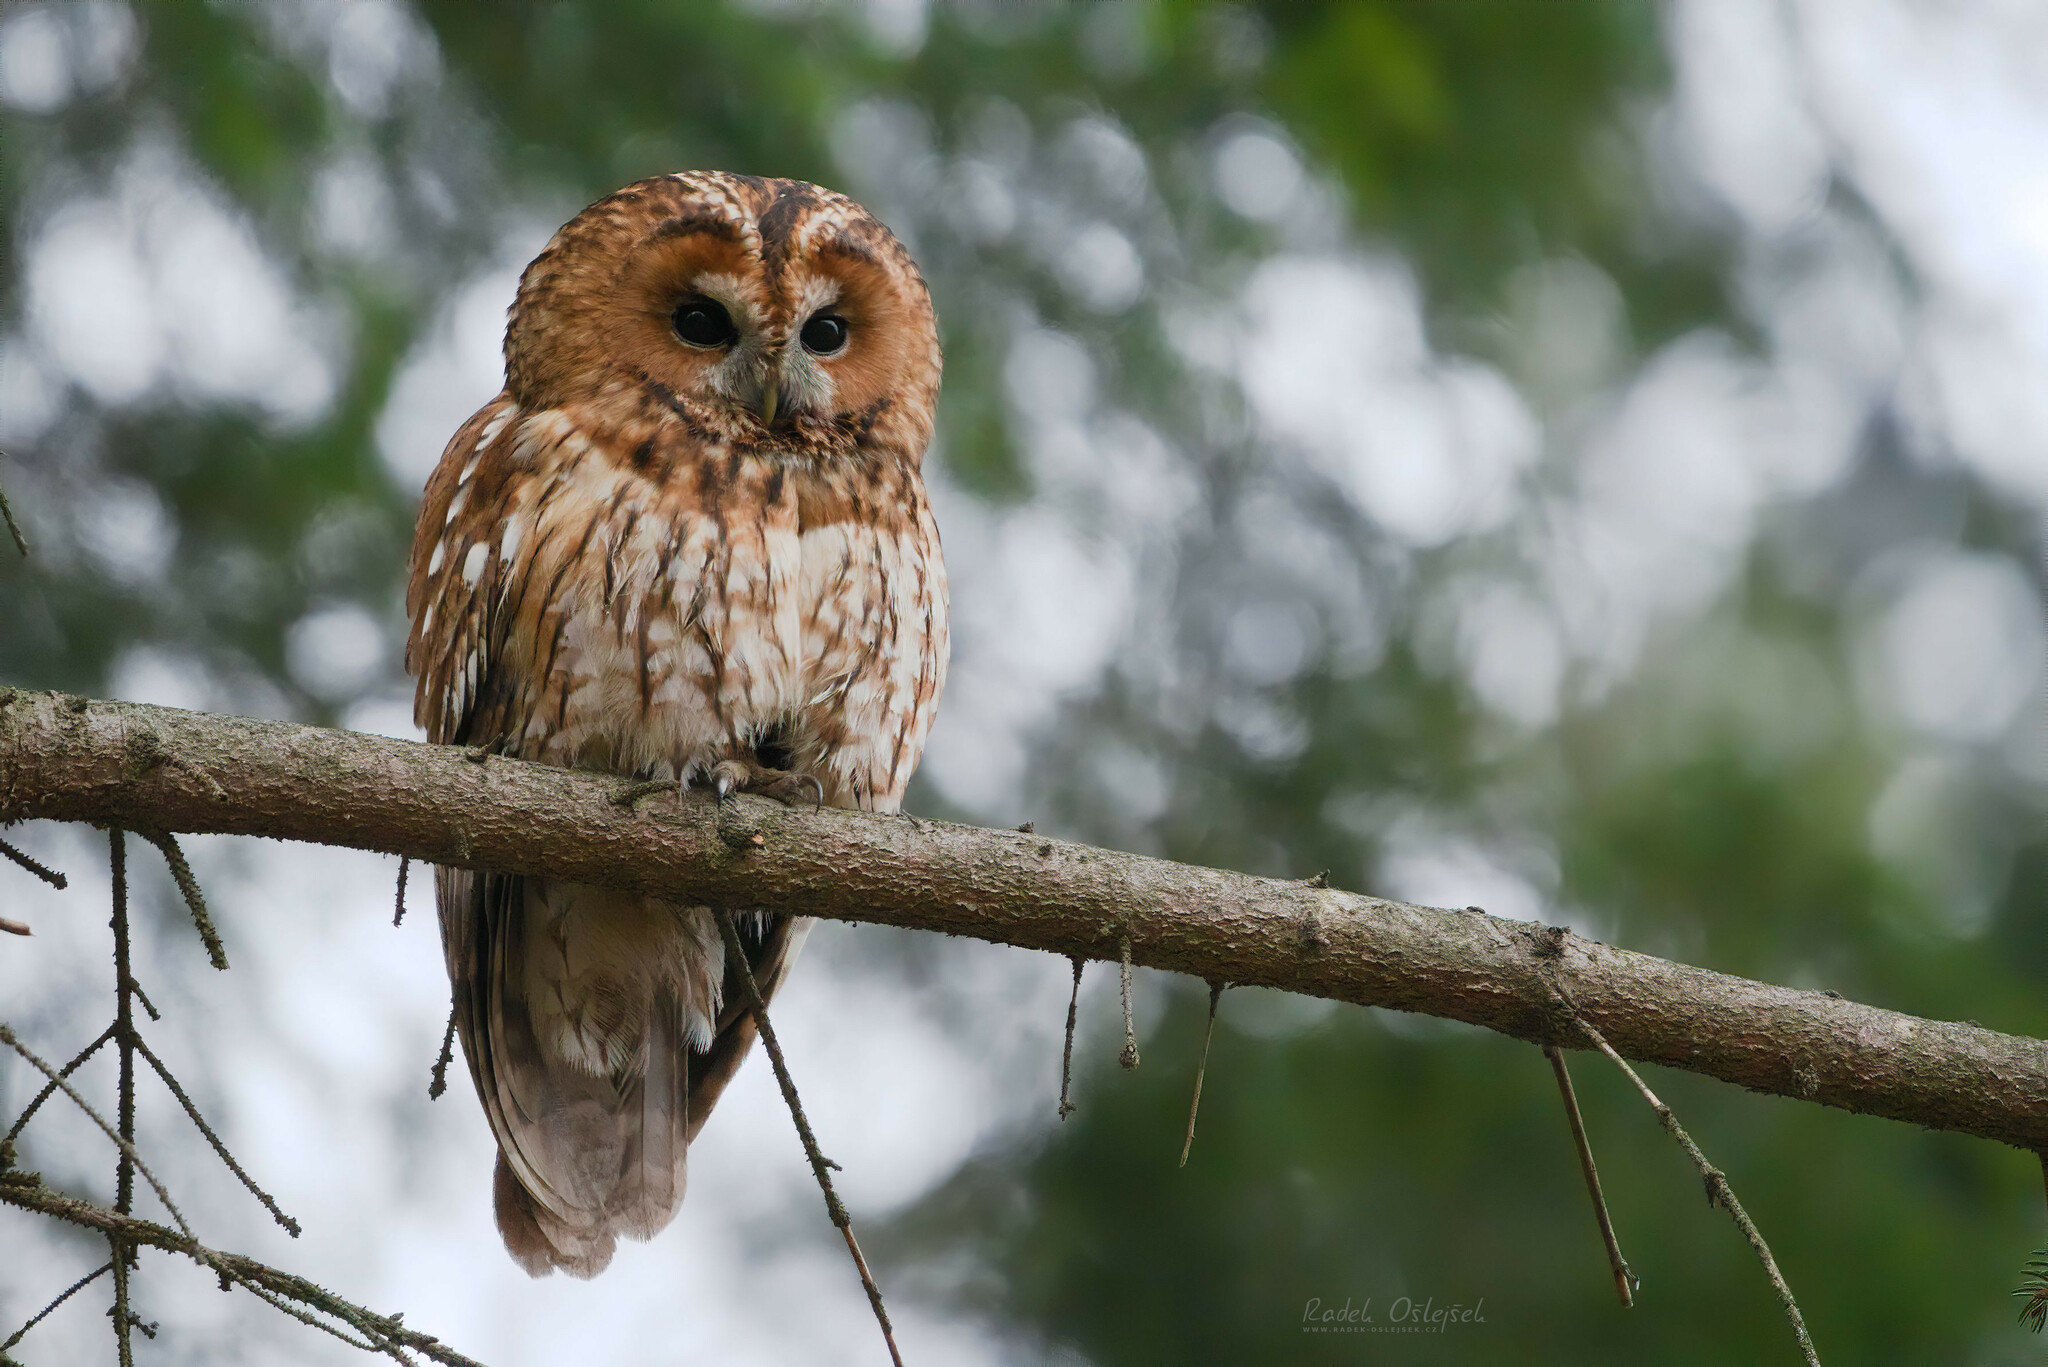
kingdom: Animalia
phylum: Chordata
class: Aves
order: Strigiformes
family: Strigidae
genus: Strix
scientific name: Strix aluco
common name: Tawny owl
